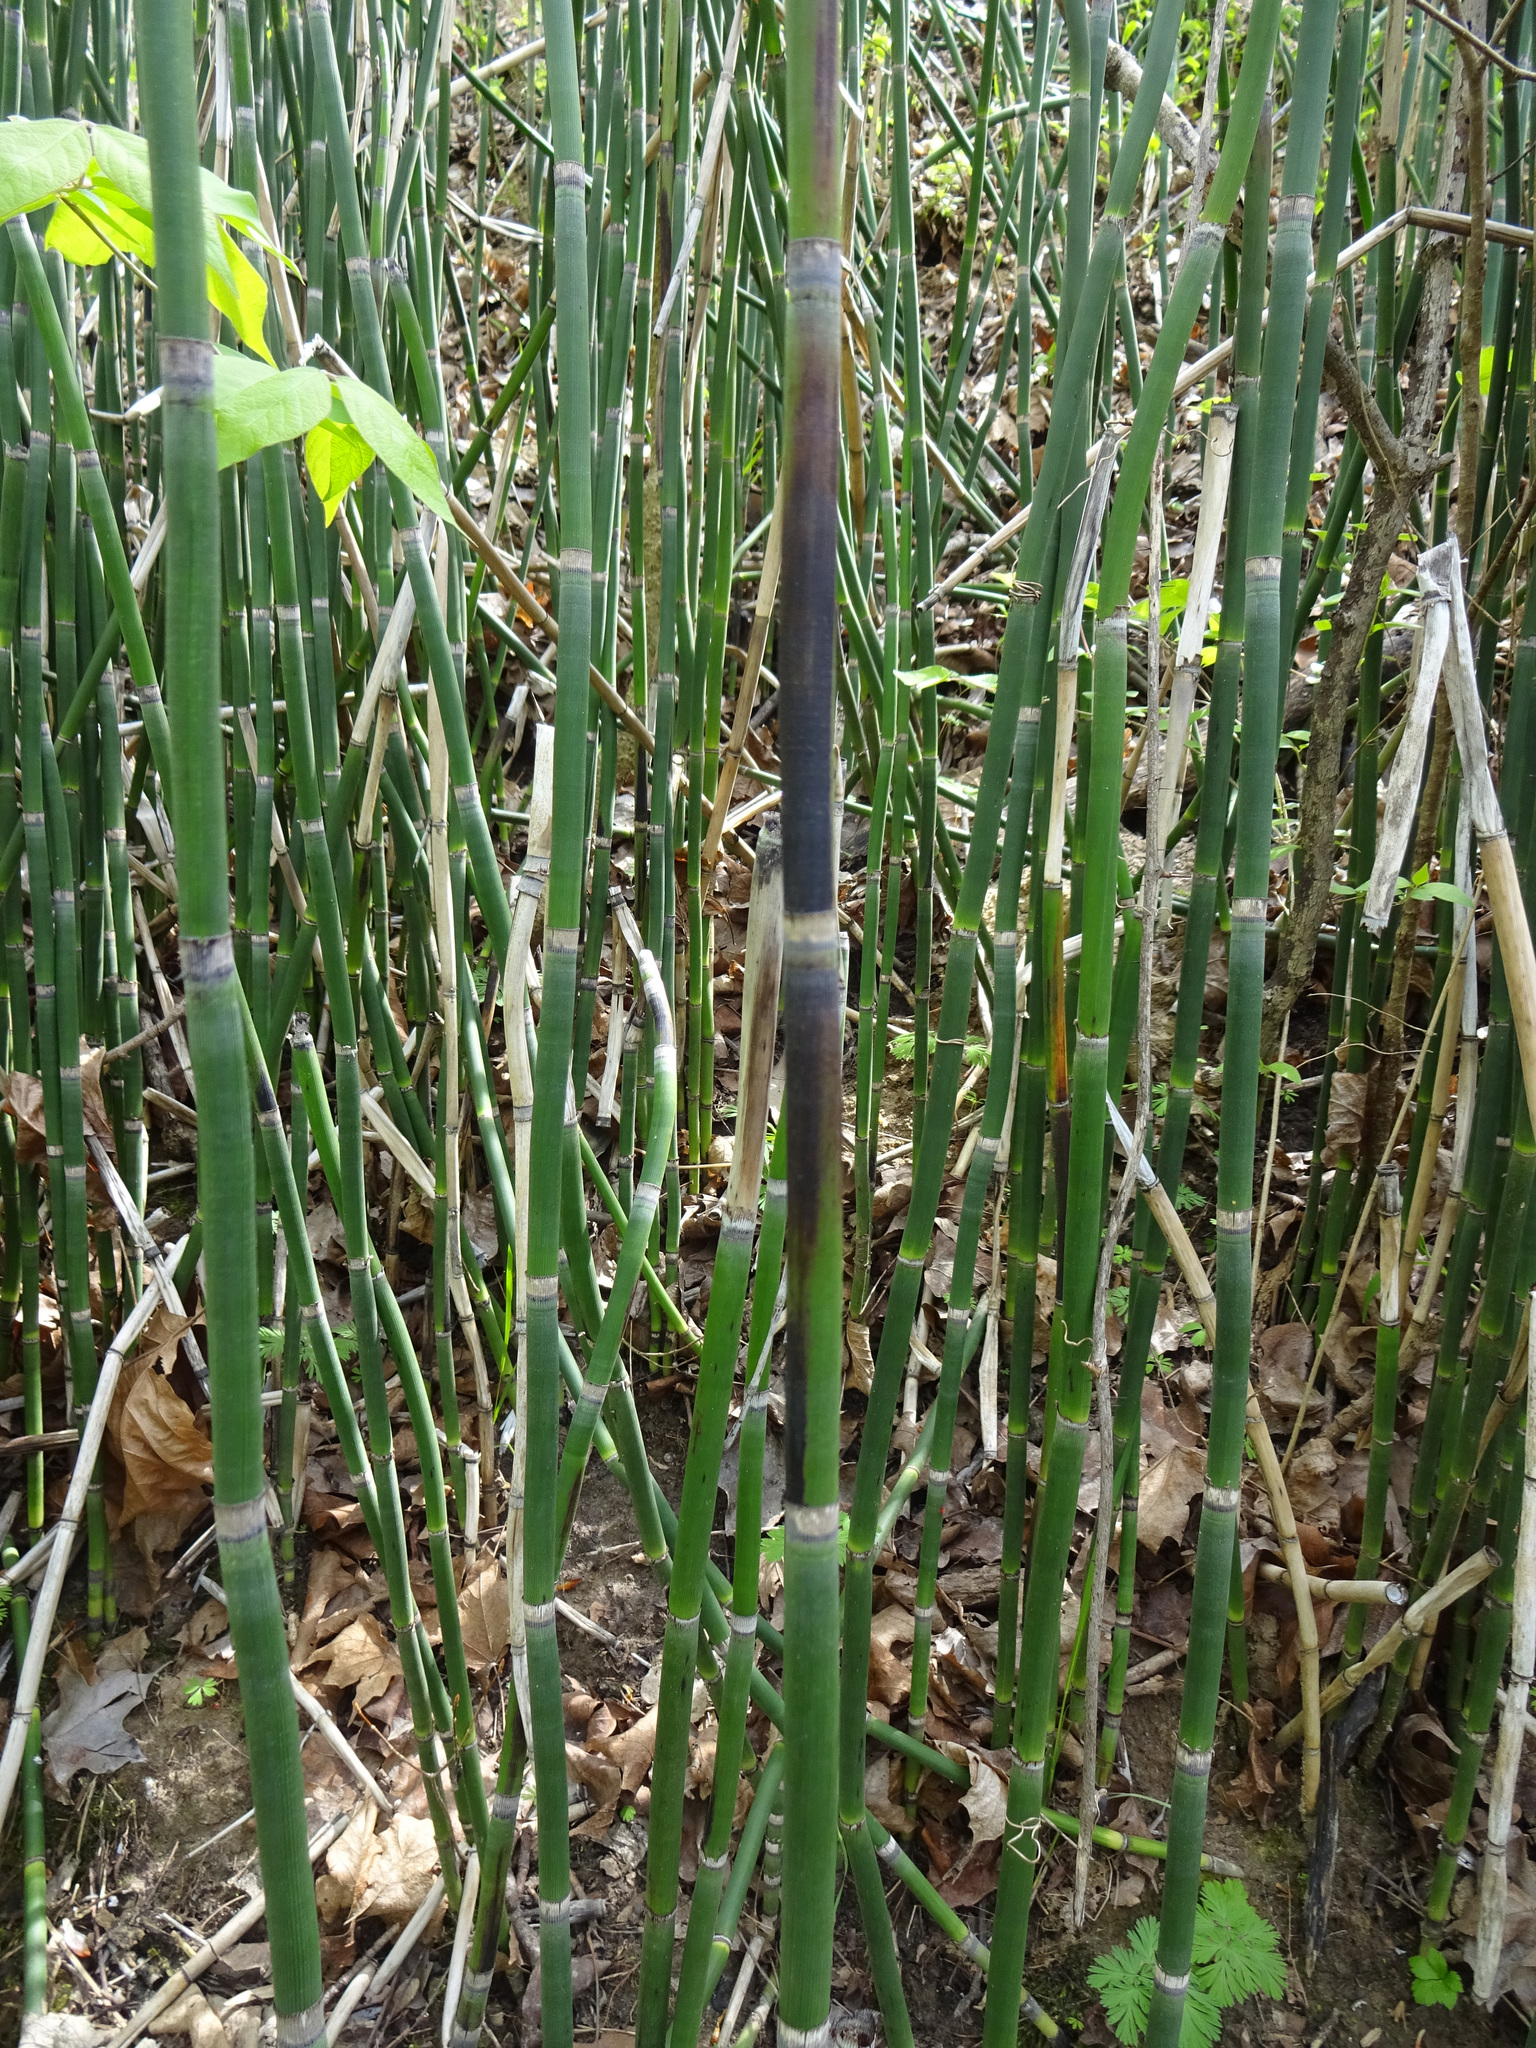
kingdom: Fungi
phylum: Ascomycota
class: Leotiomycetes
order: Helotiales
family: Helotiaceae
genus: Stamnaria
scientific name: Stamnaria americana
